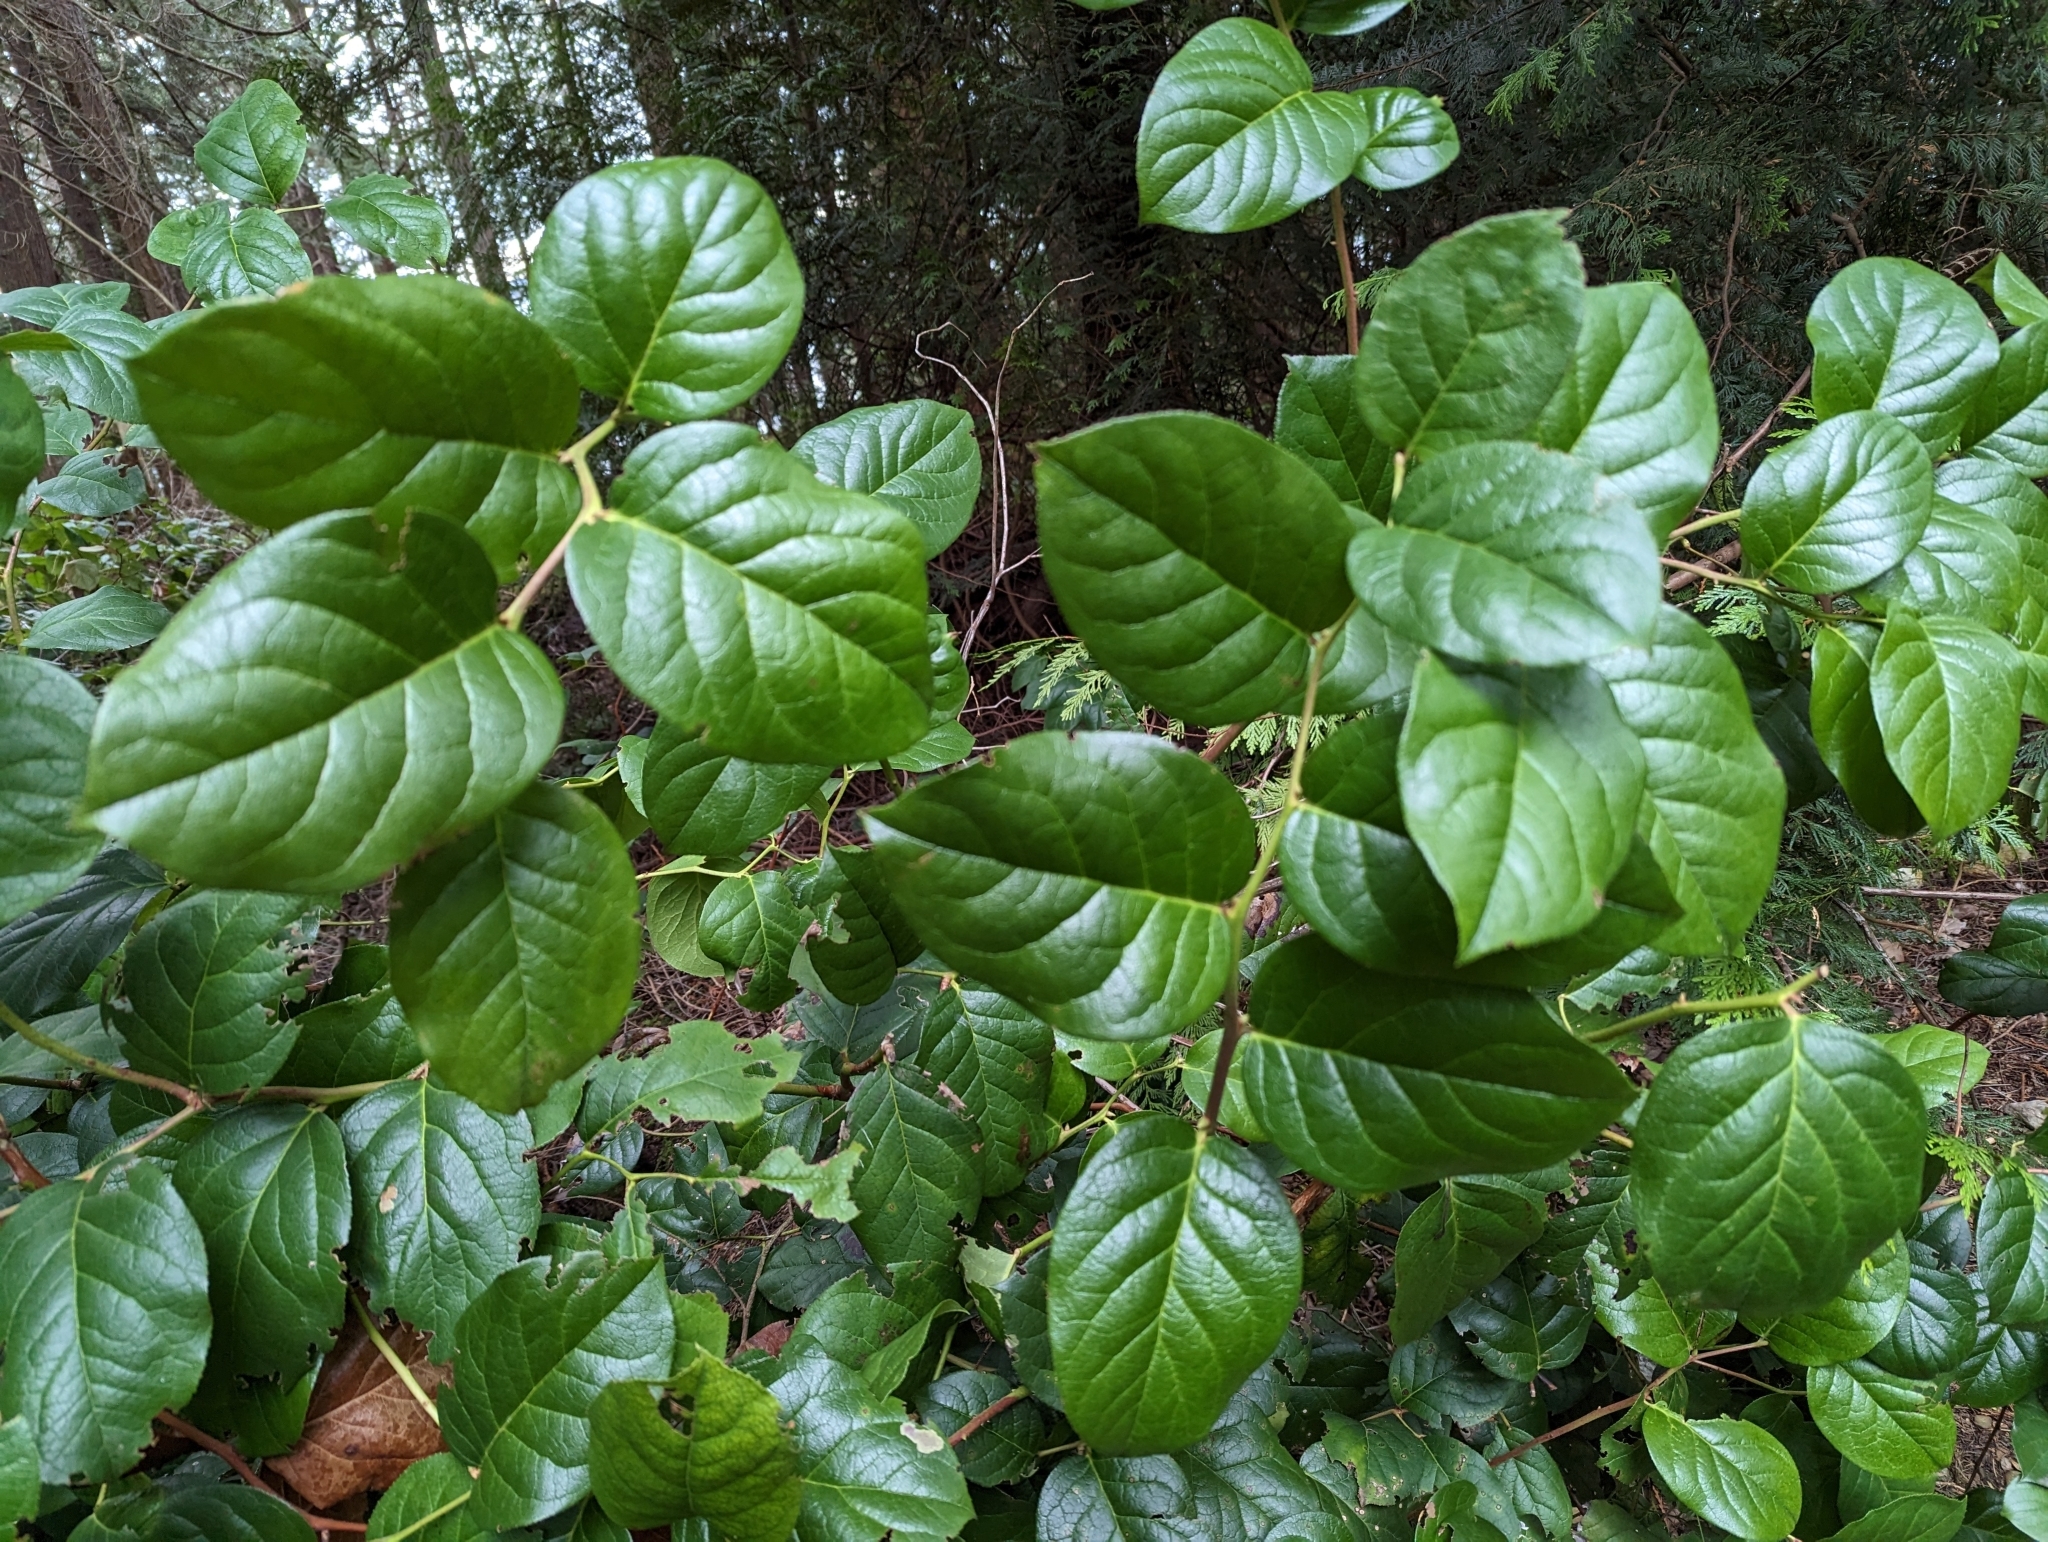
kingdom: Plantae
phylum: Tracheophyta
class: Magnoliopsida
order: Ericales
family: Ericaceae
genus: Gaultheria
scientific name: Gaultheria shallon
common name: Shallon
